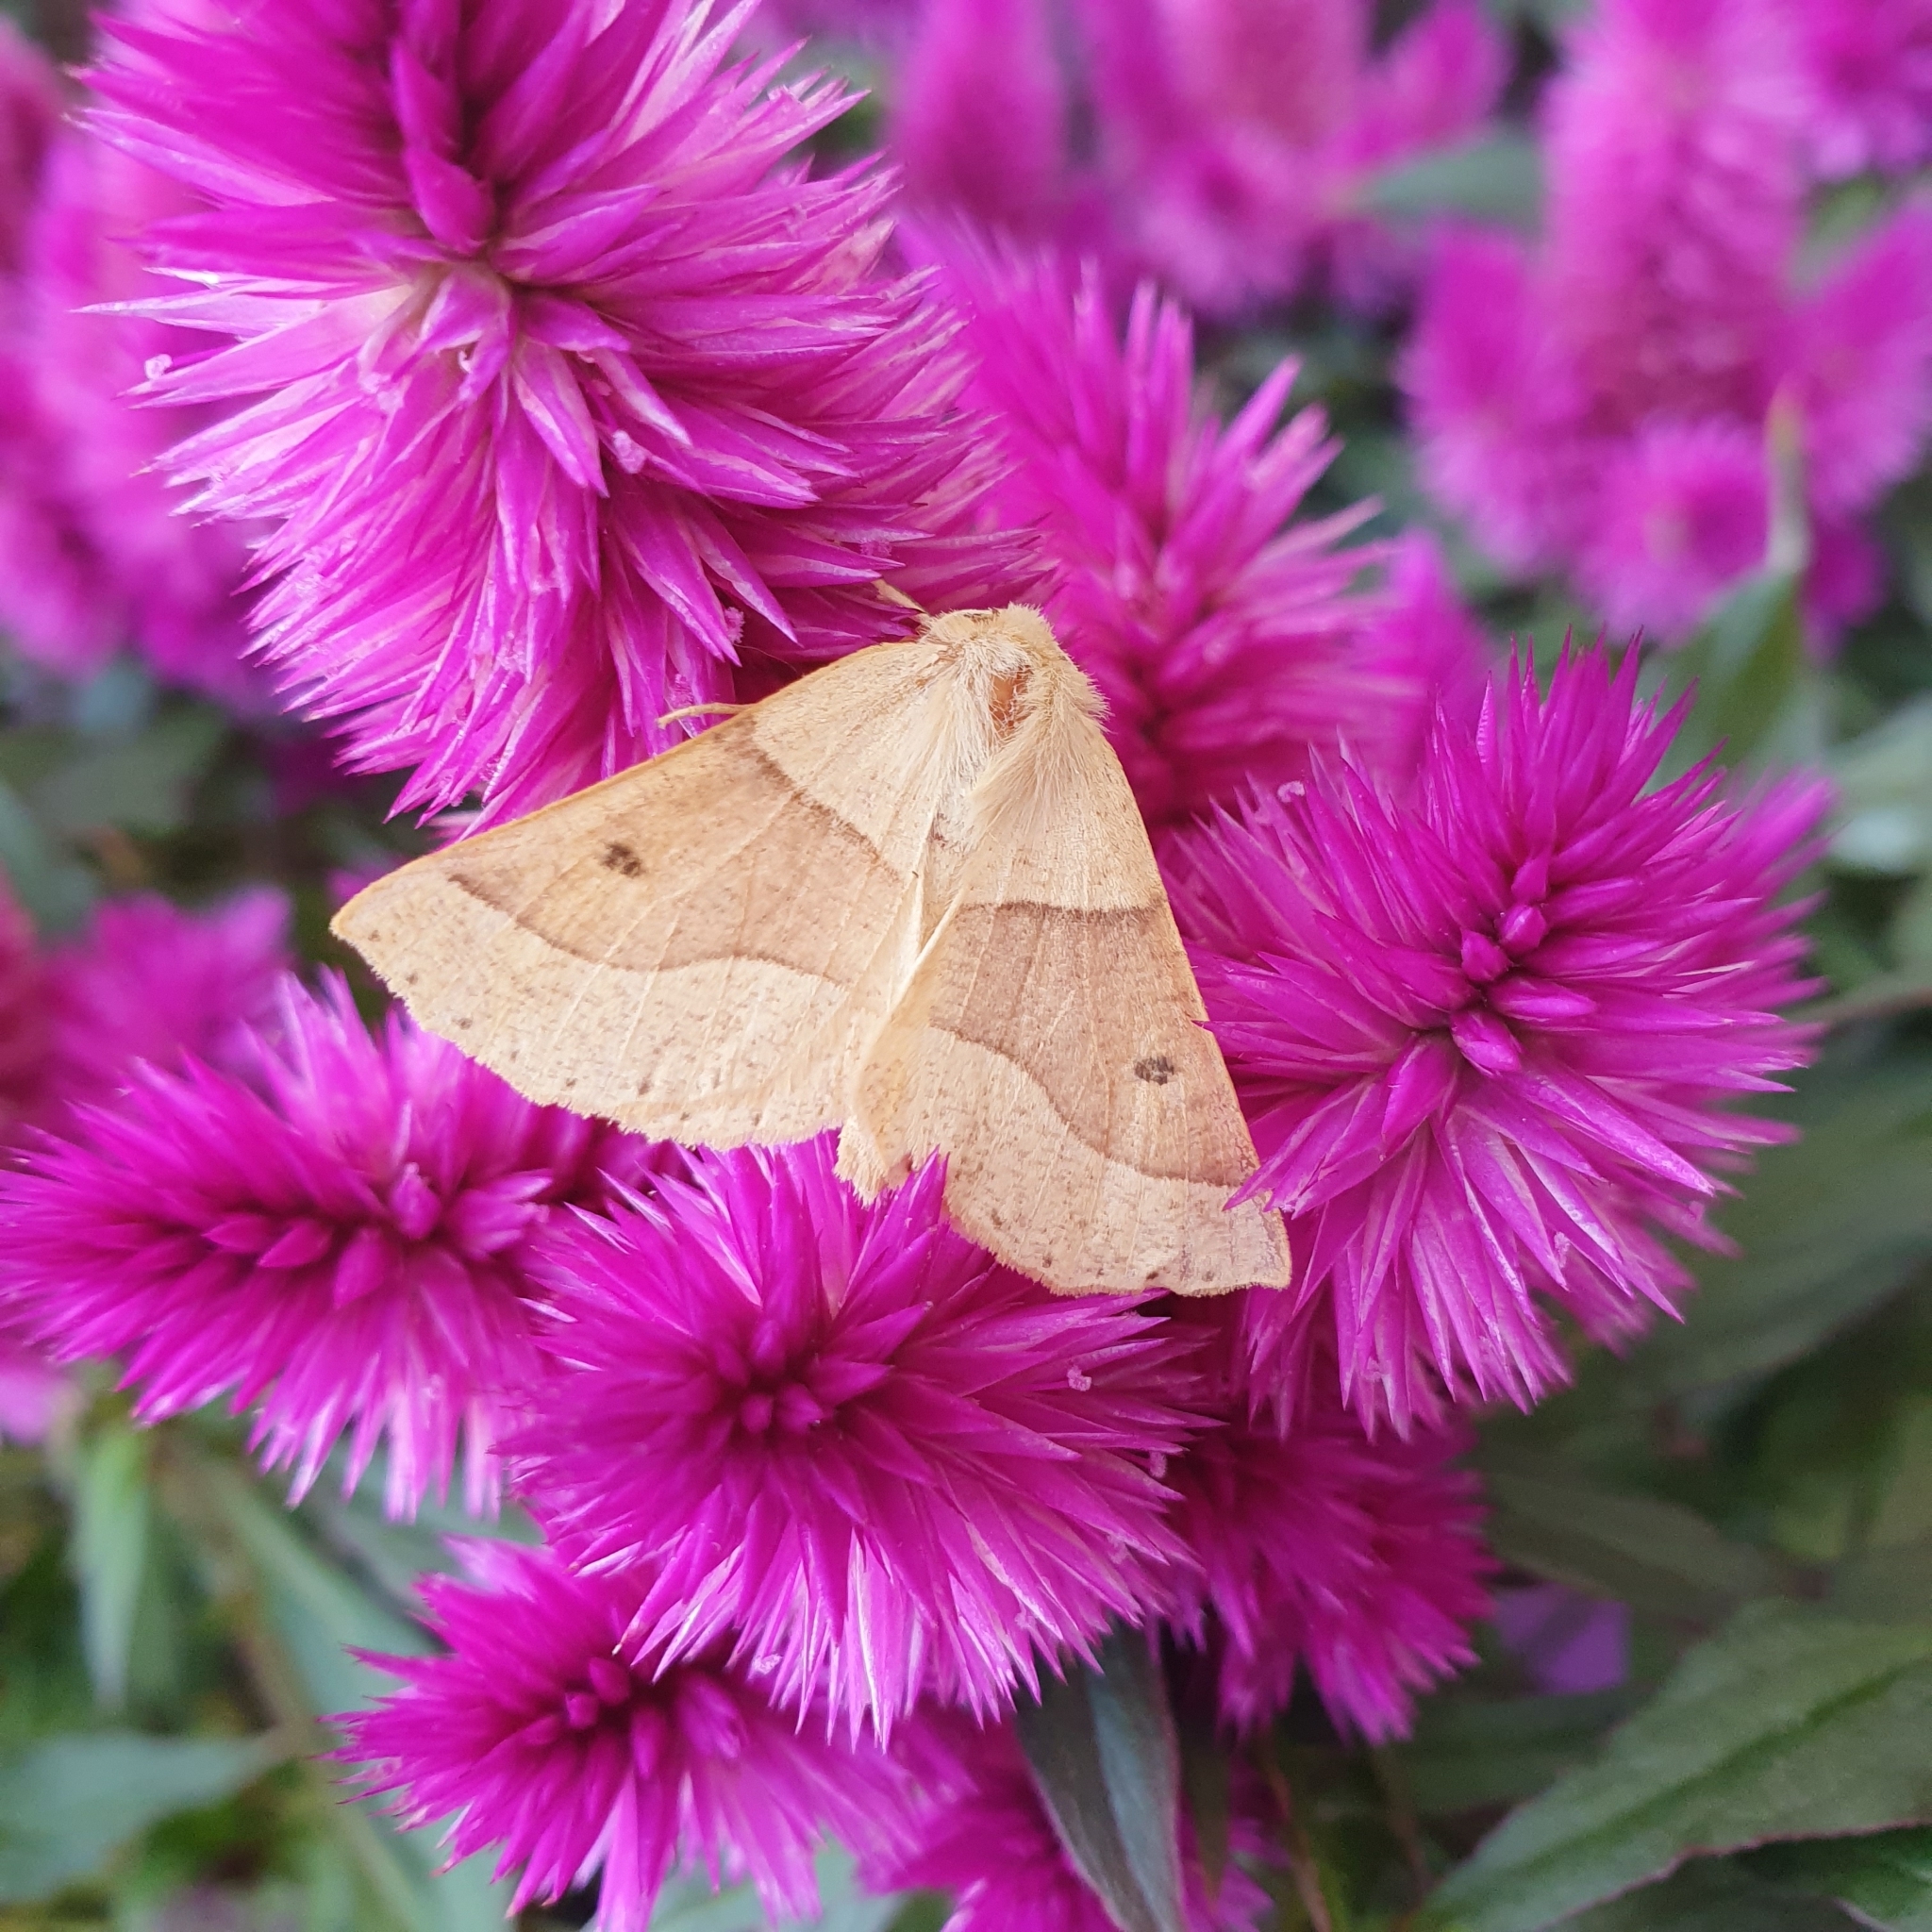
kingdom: Animalia
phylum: Arthropoda
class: Insecta
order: Lepidoptera
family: Geometridae
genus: Crocallis
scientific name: Crocallis elinguaria
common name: Scalloped oak
